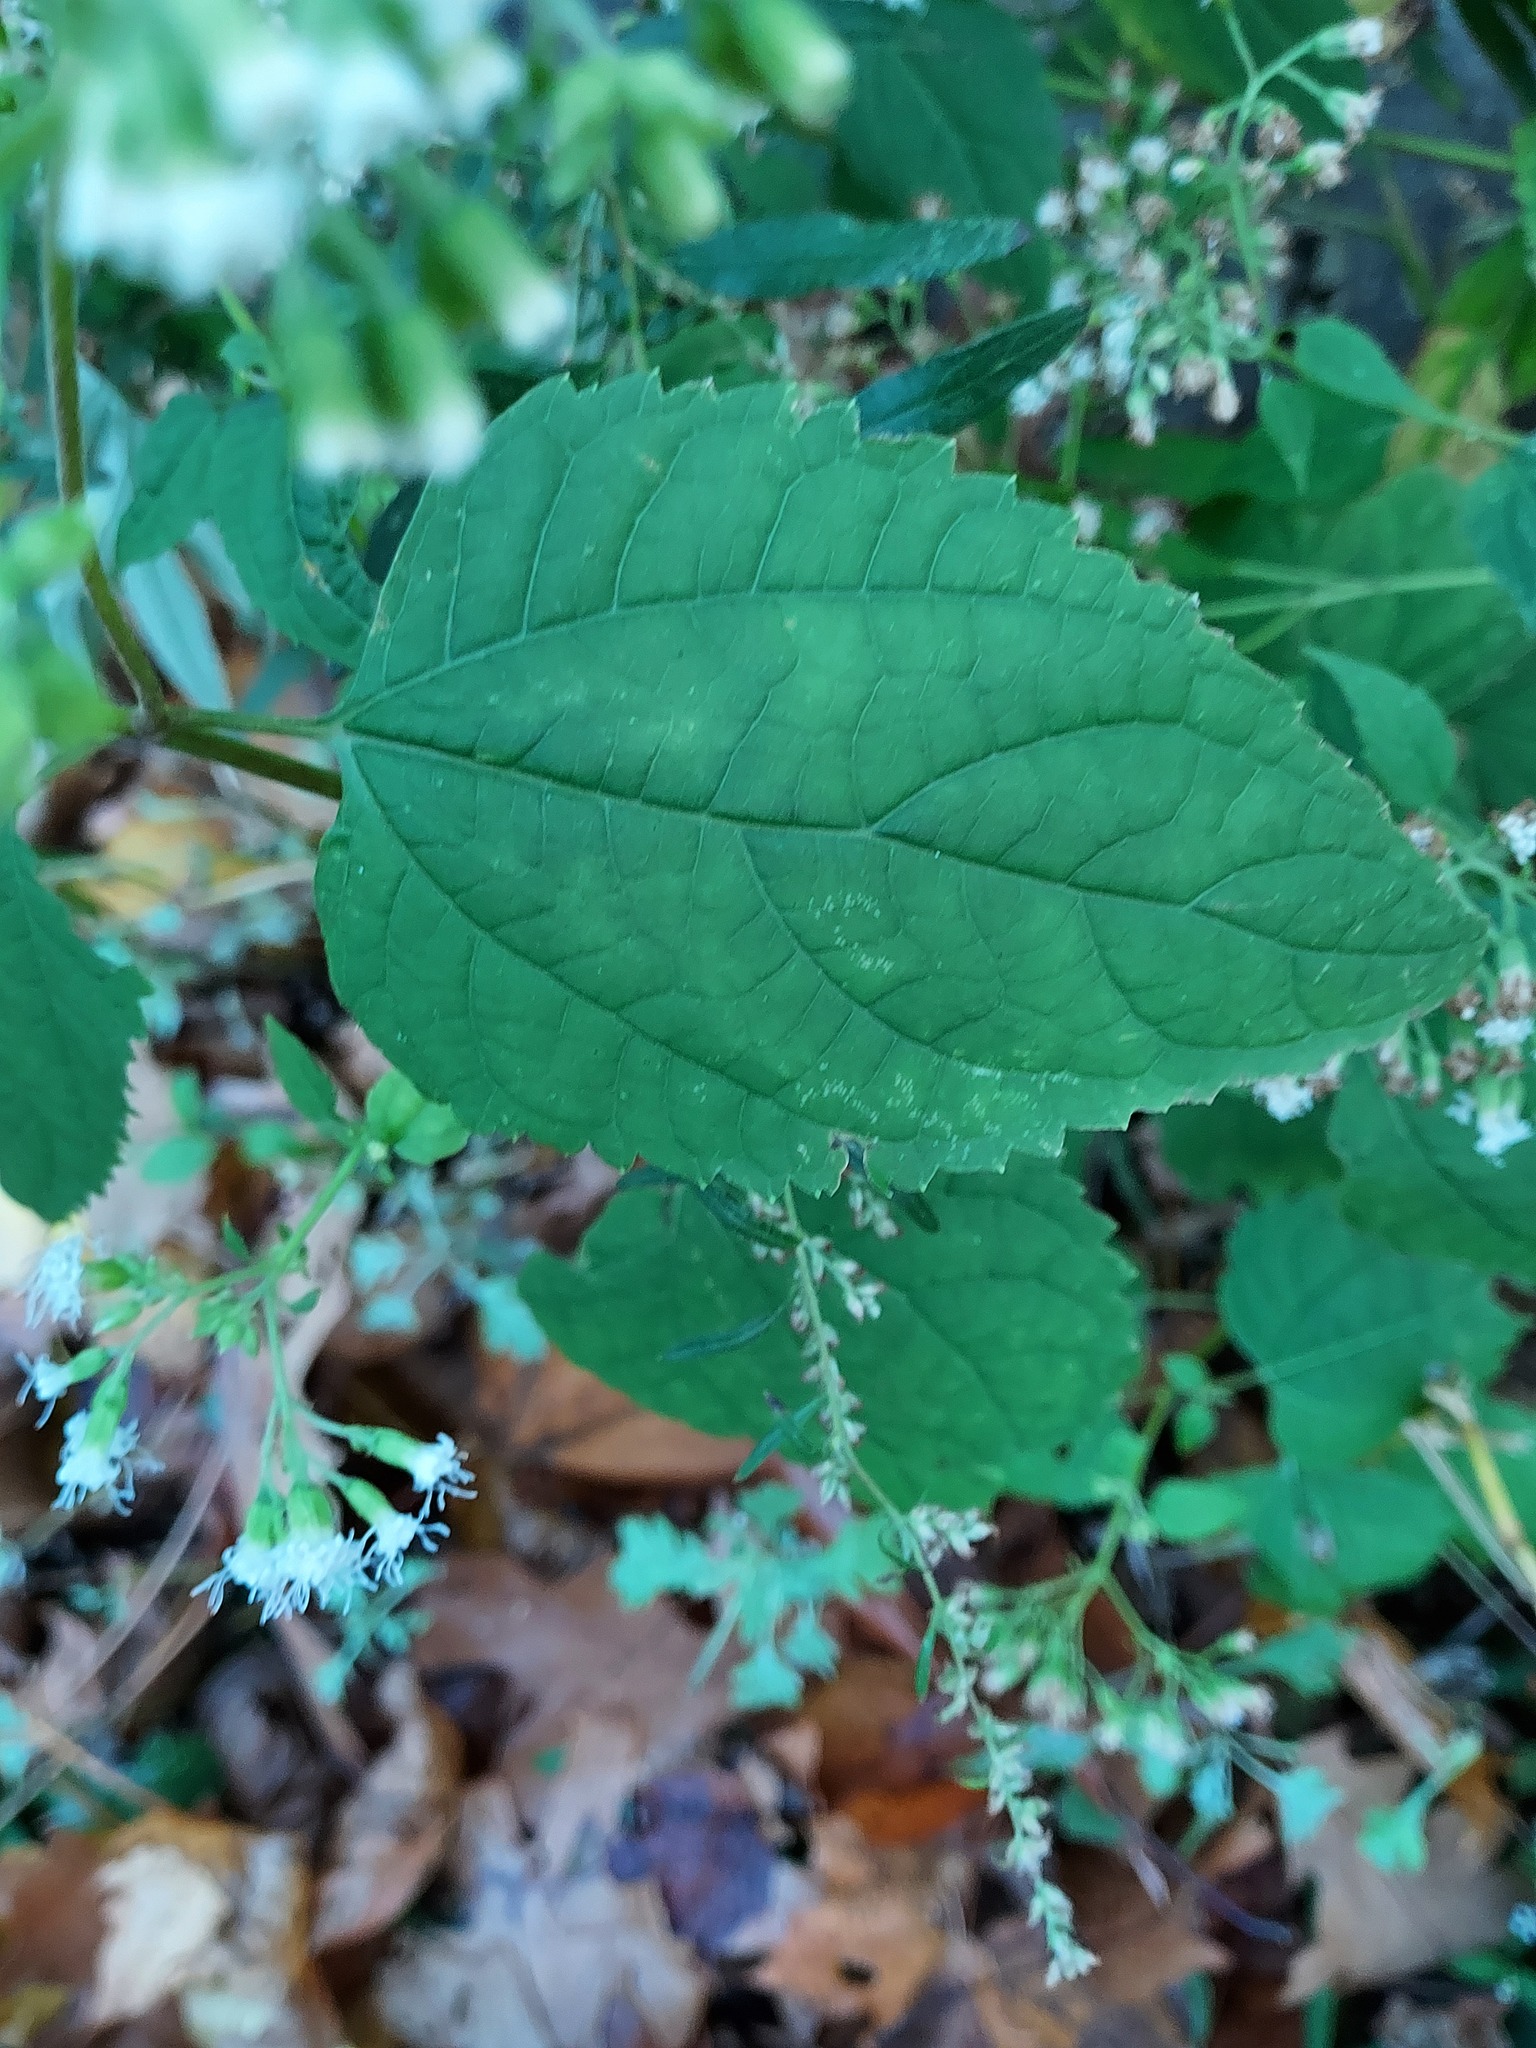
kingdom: Plantae
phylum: Tracheophyta
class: Magnoliopsida
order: Asterales
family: Asteraceae
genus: Ageratina
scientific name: Ageratina altissima
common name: White snakeroot
